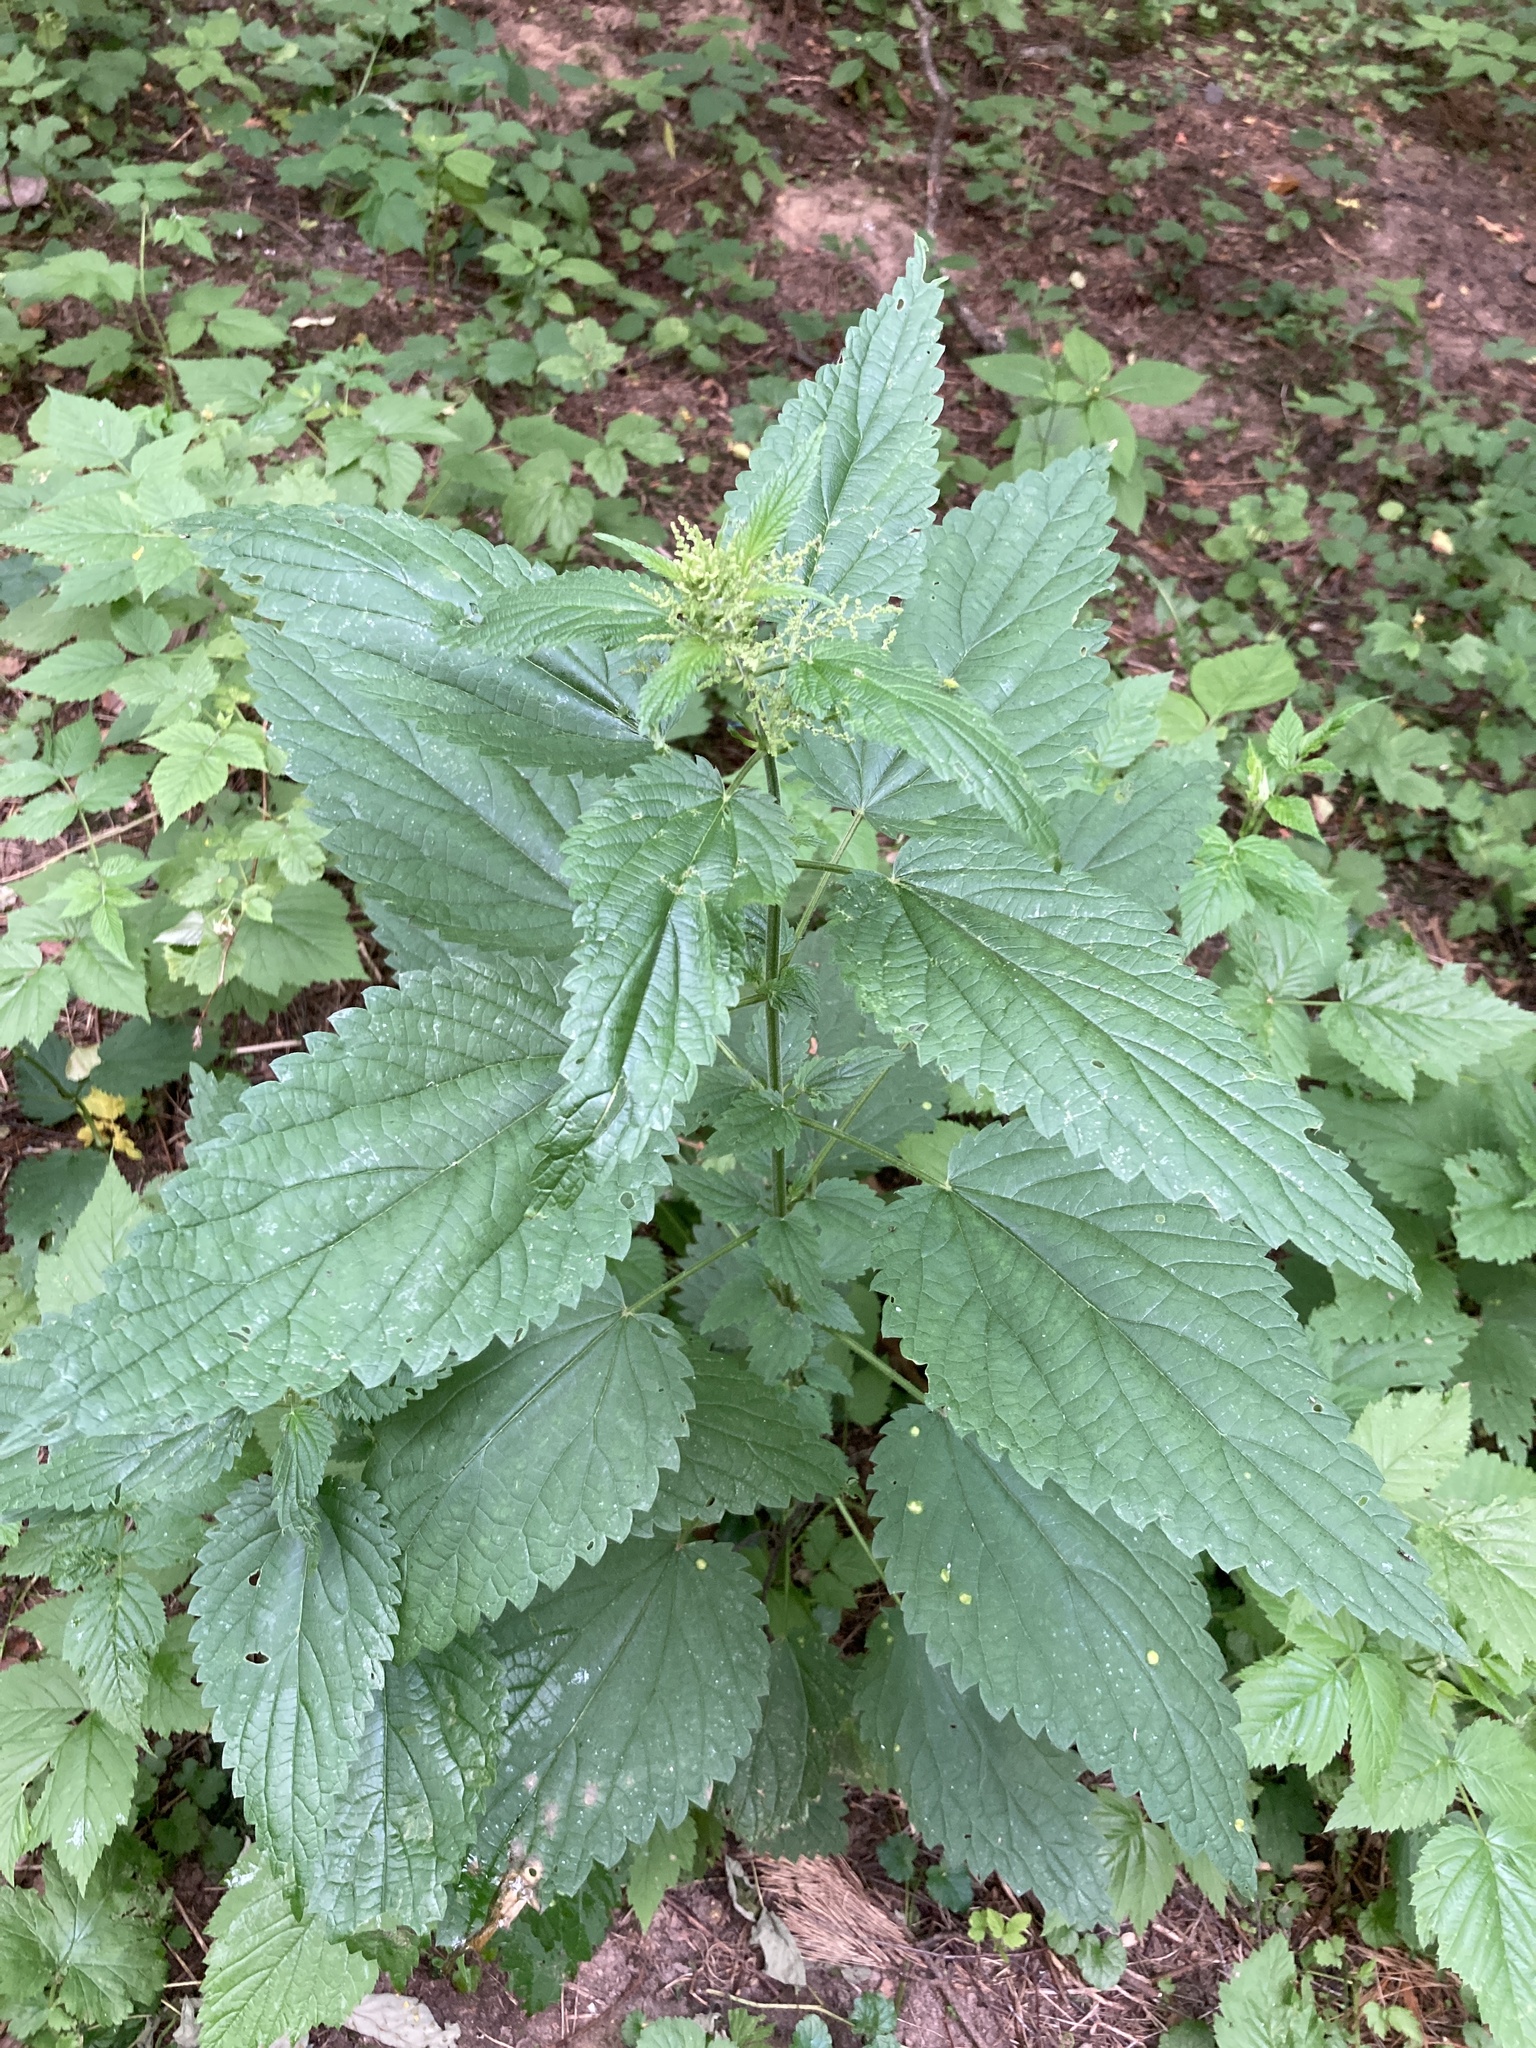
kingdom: Plantae
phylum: Tracheophyta
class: Magnoliopsida
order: Rosales
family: Urticaceae
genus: Urtica
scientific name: Urtica dioica
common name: Common nettle
